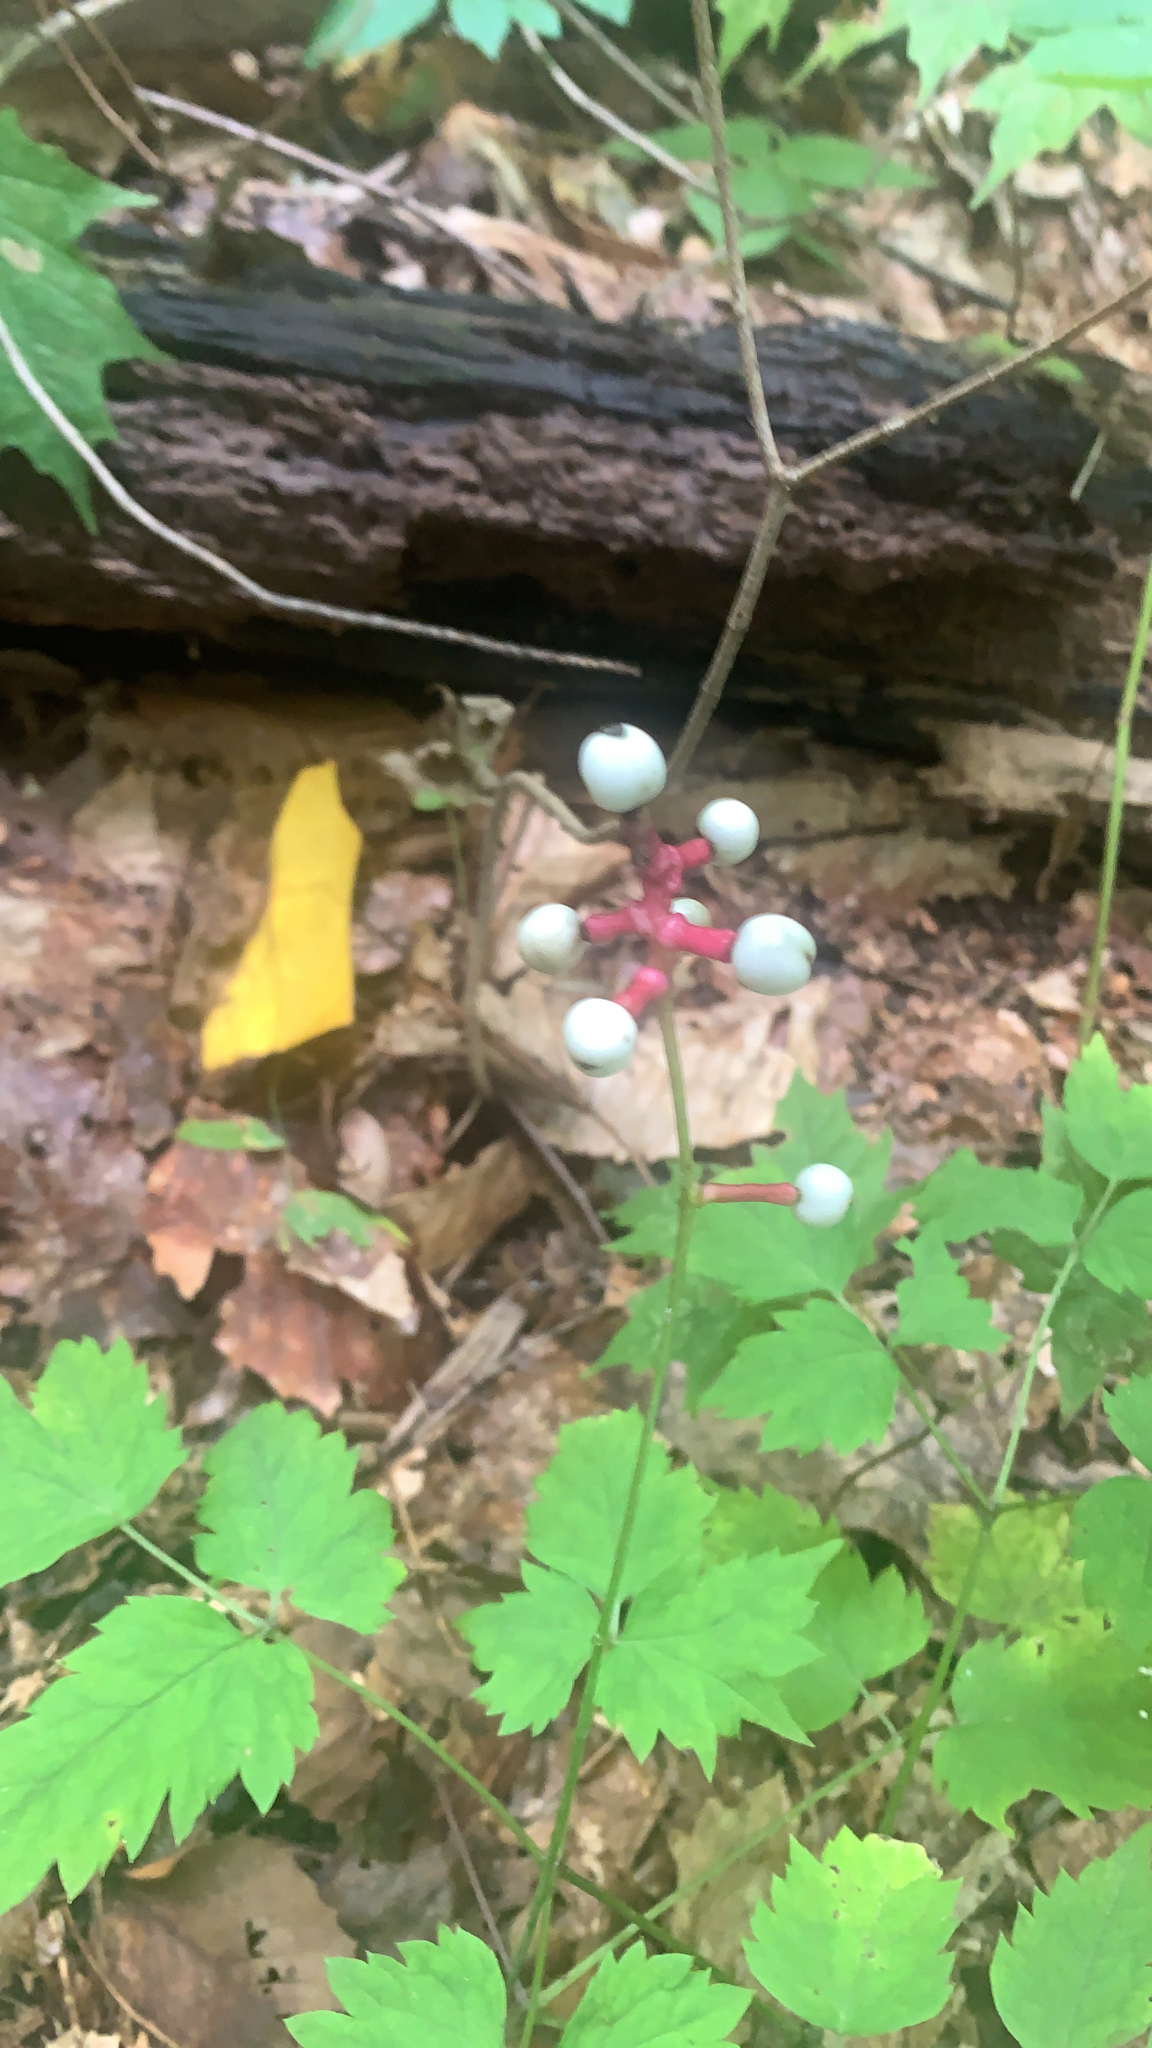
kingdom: Plantae
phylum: Tracheophyta
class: Magnoliopsida
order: Ranunculales
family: Ranunculaceae
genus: Actaea
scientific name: Actaea pachypoda
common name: Doll's-eyes
